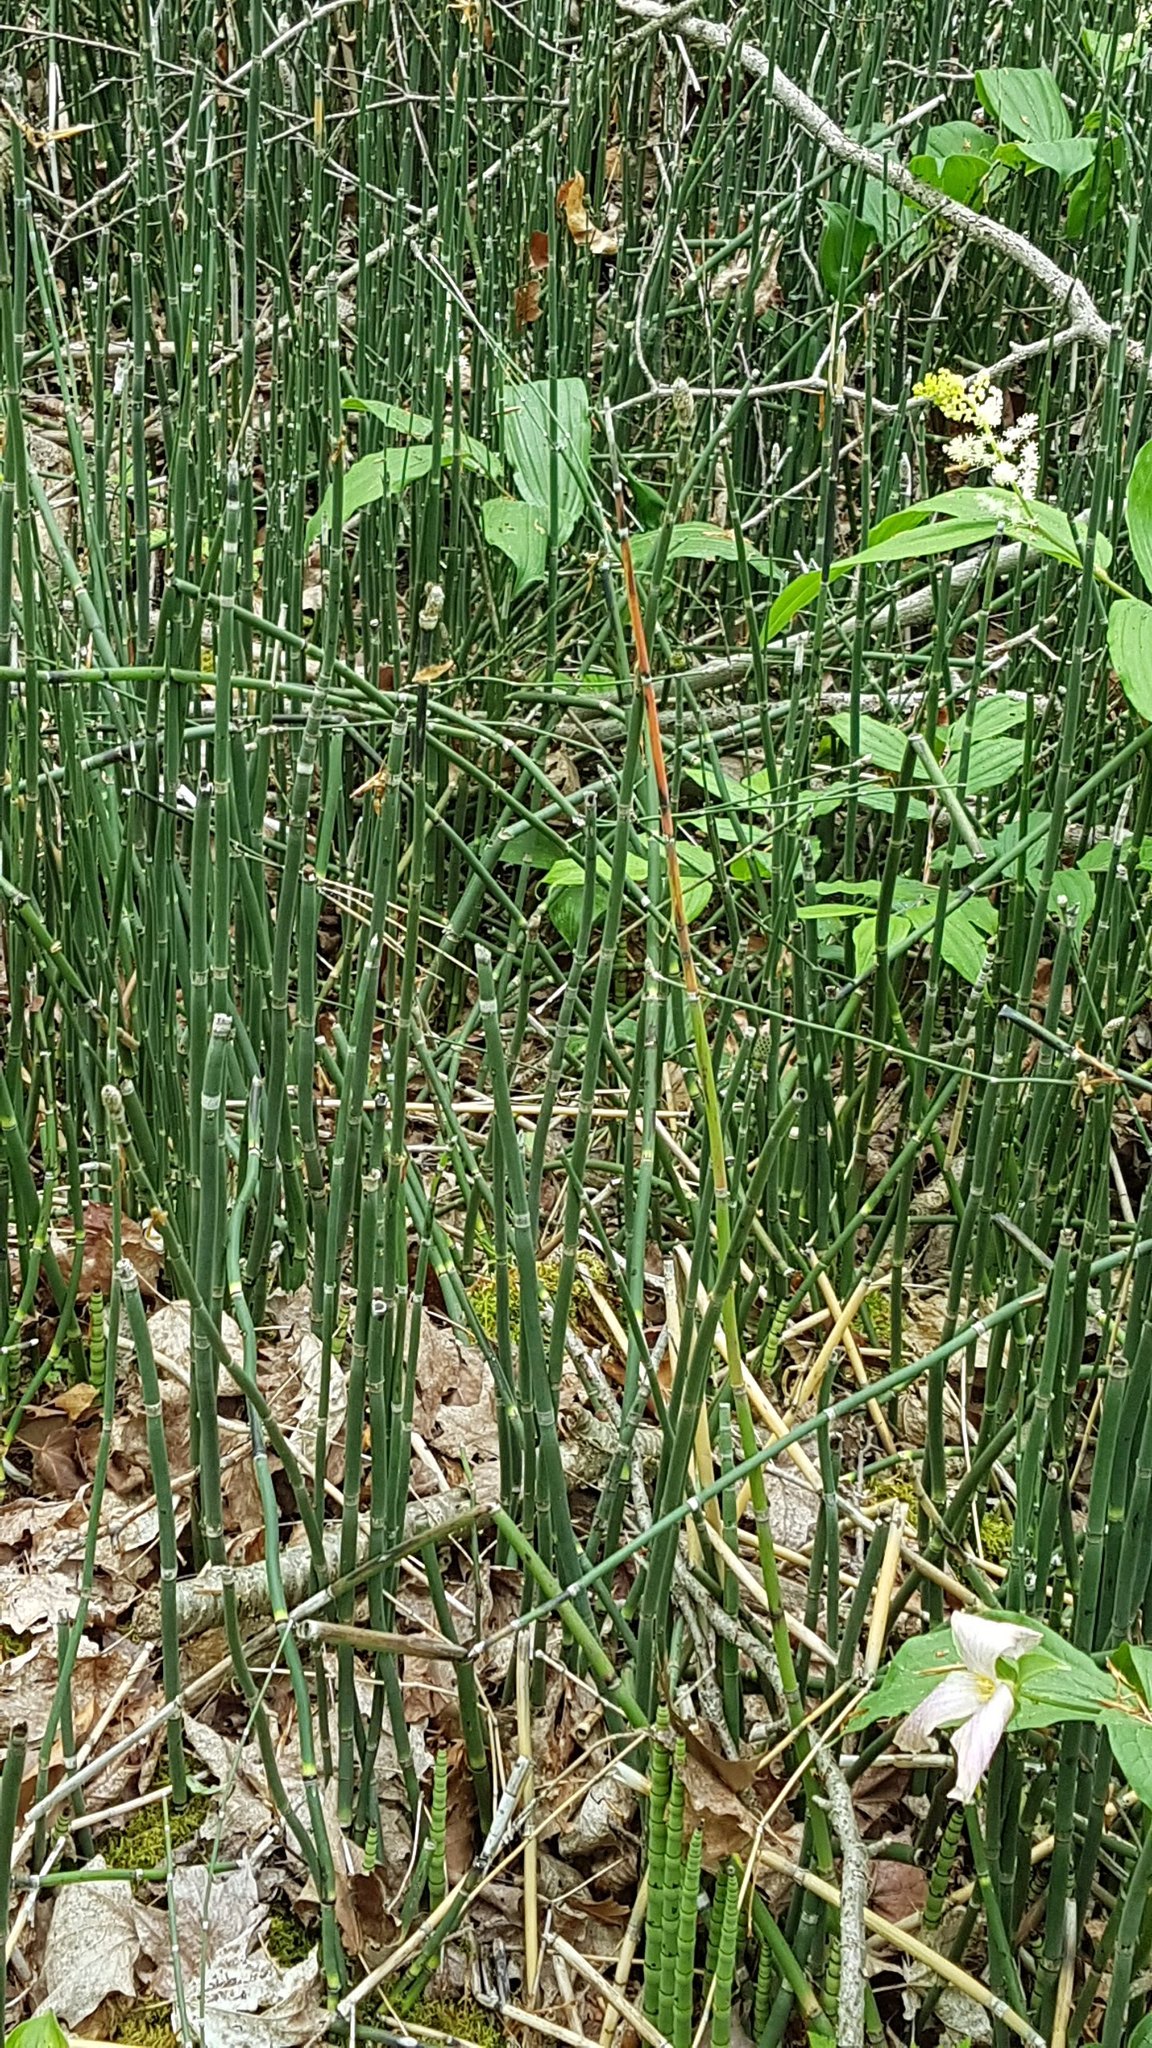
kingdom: Plantae
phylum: Tracheophyta
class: Polypodiopsida
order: Equisetales
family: Equisetaceae
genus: Equisetum
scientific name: Equisetum hyemale
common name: Rough horsetail
